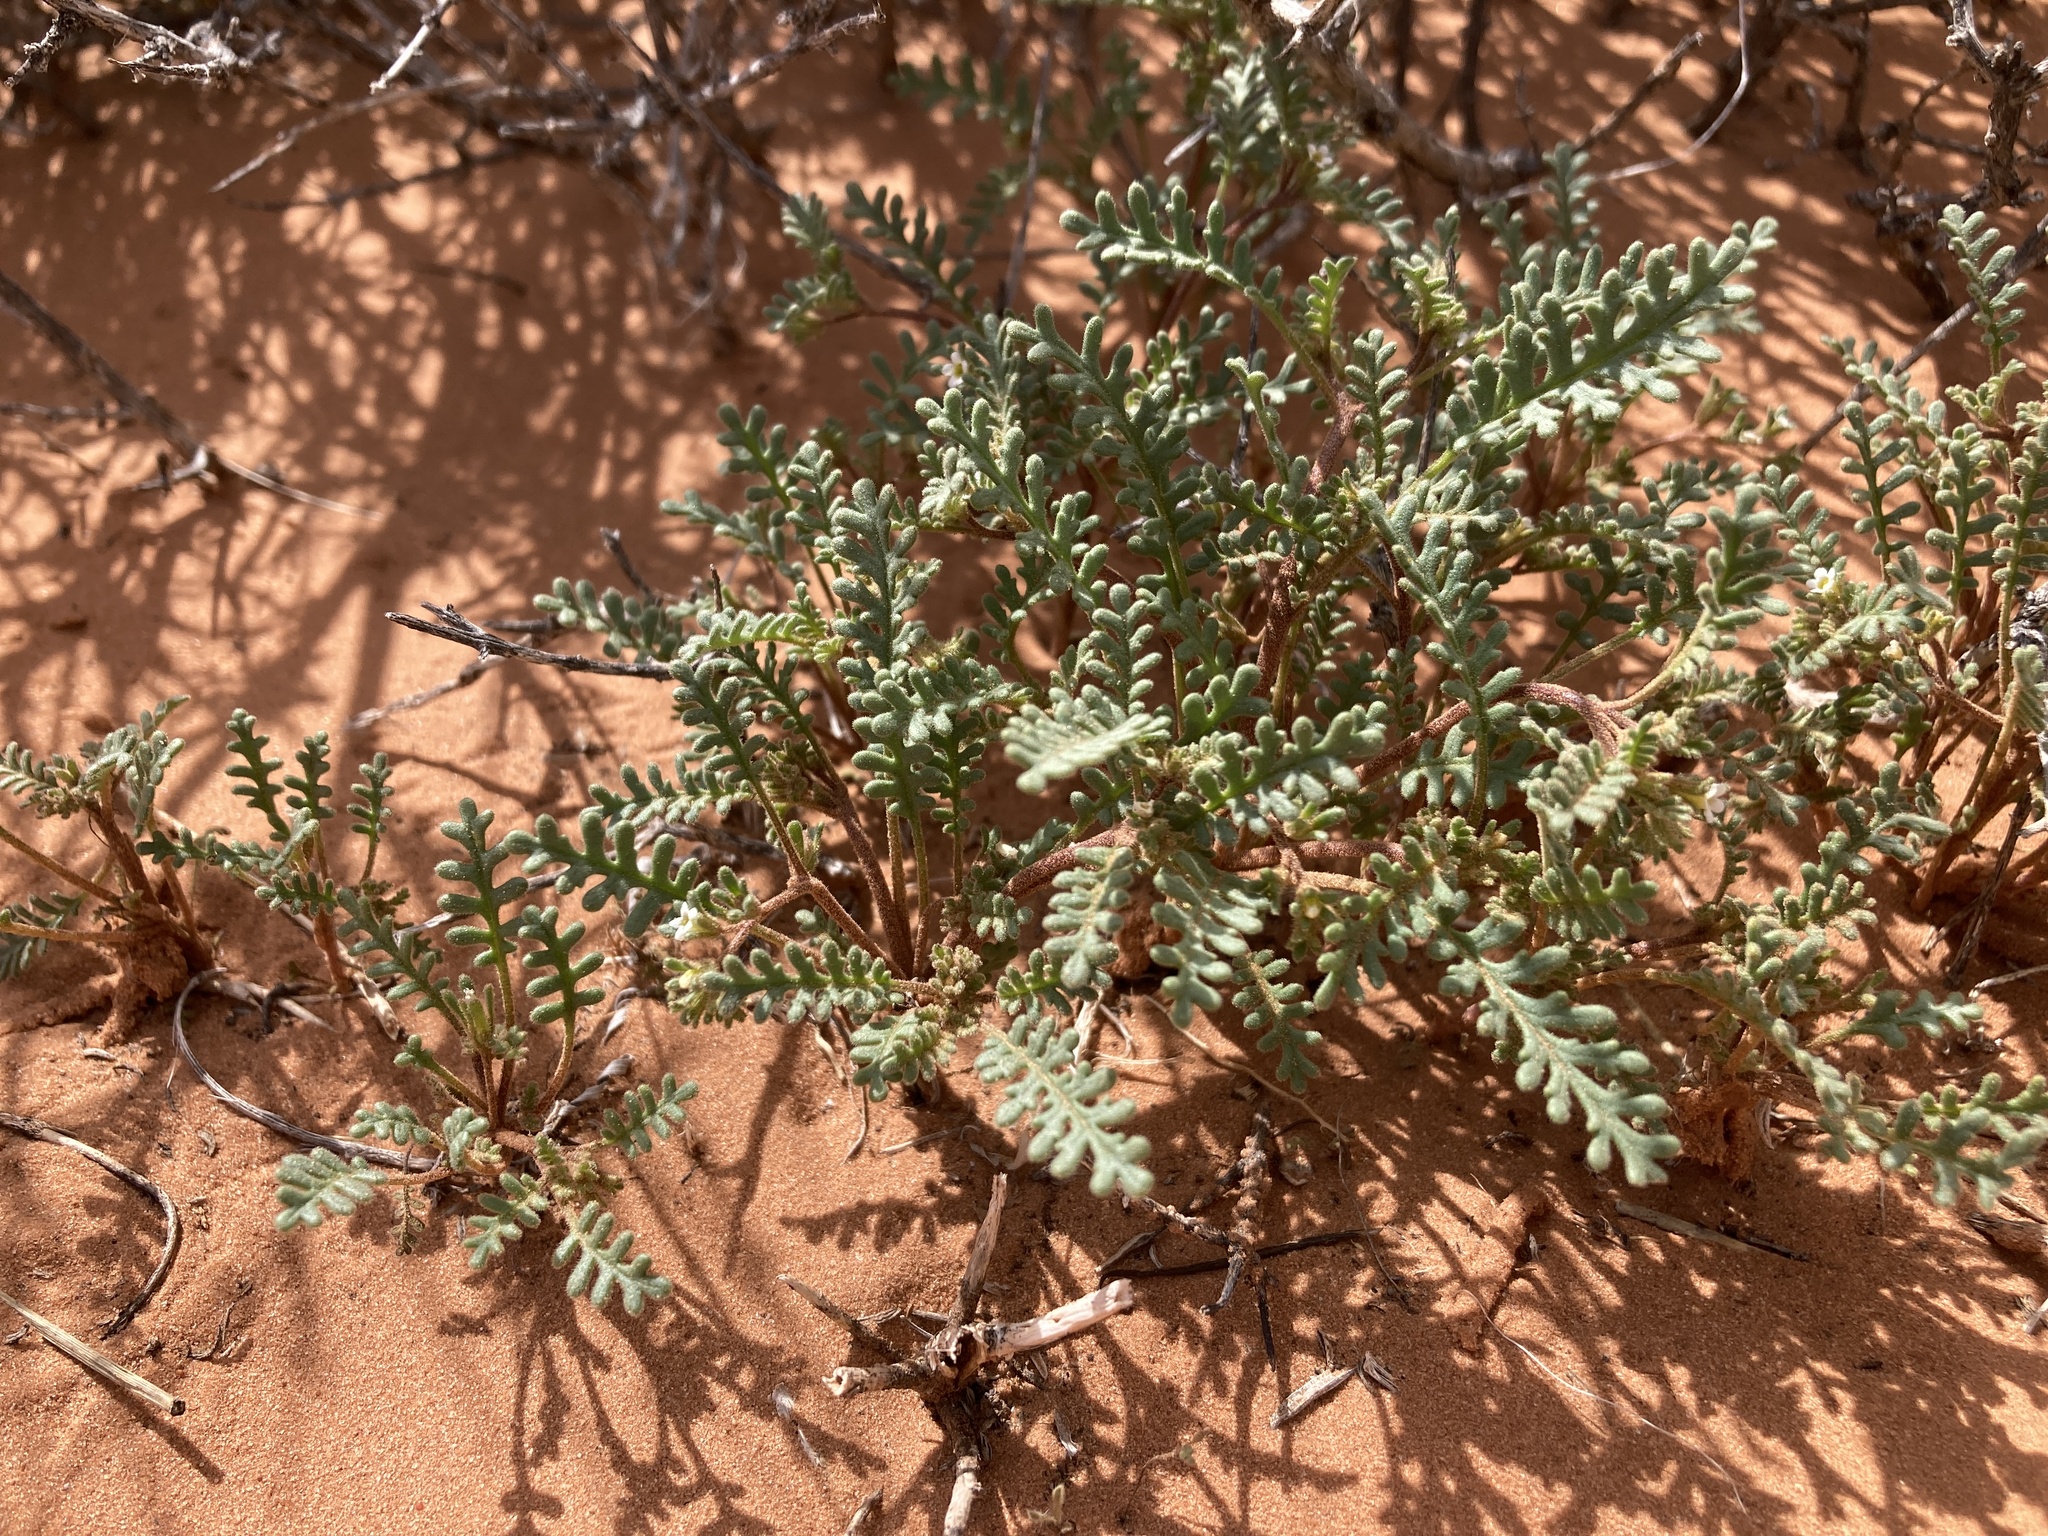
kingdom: Plantae
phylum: Tracheophyta
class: Magnoliopsida
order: Boraginales
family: Hydrophyllaceae
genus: Phacelia
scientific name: Phacelia ivesiana
